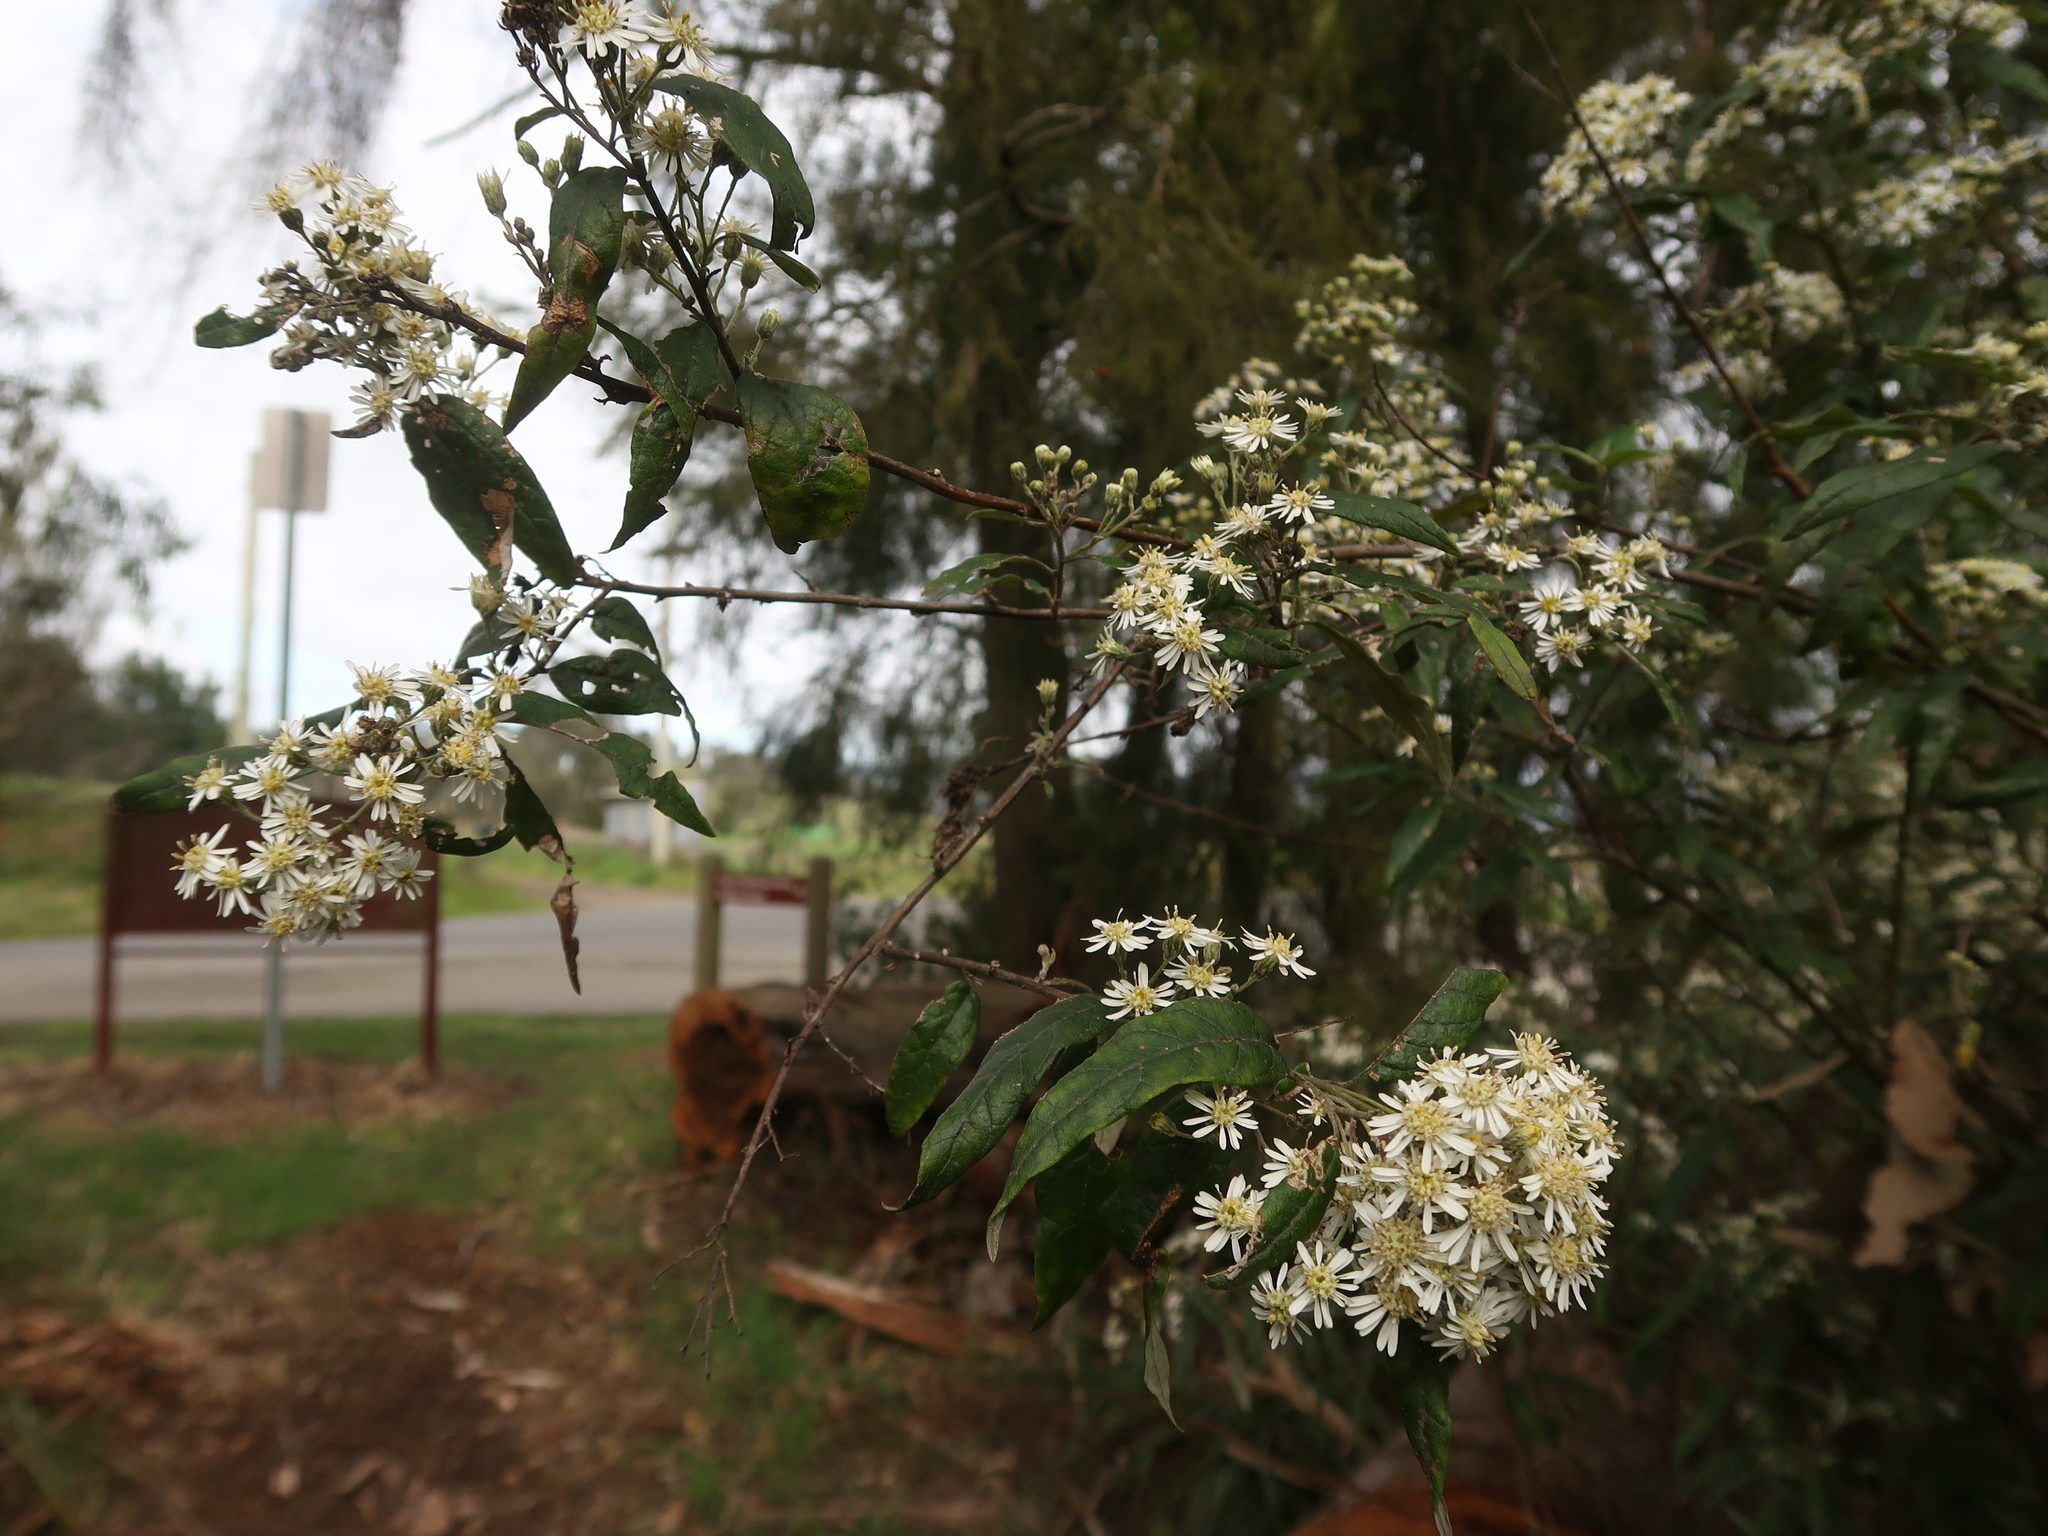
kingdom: Plantae
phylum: Tracheophyta
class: Magnoliopsida
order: Asterales
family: Asteraceae
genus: Olearia
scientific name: Olearia lirata
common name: Dusty daisybush
